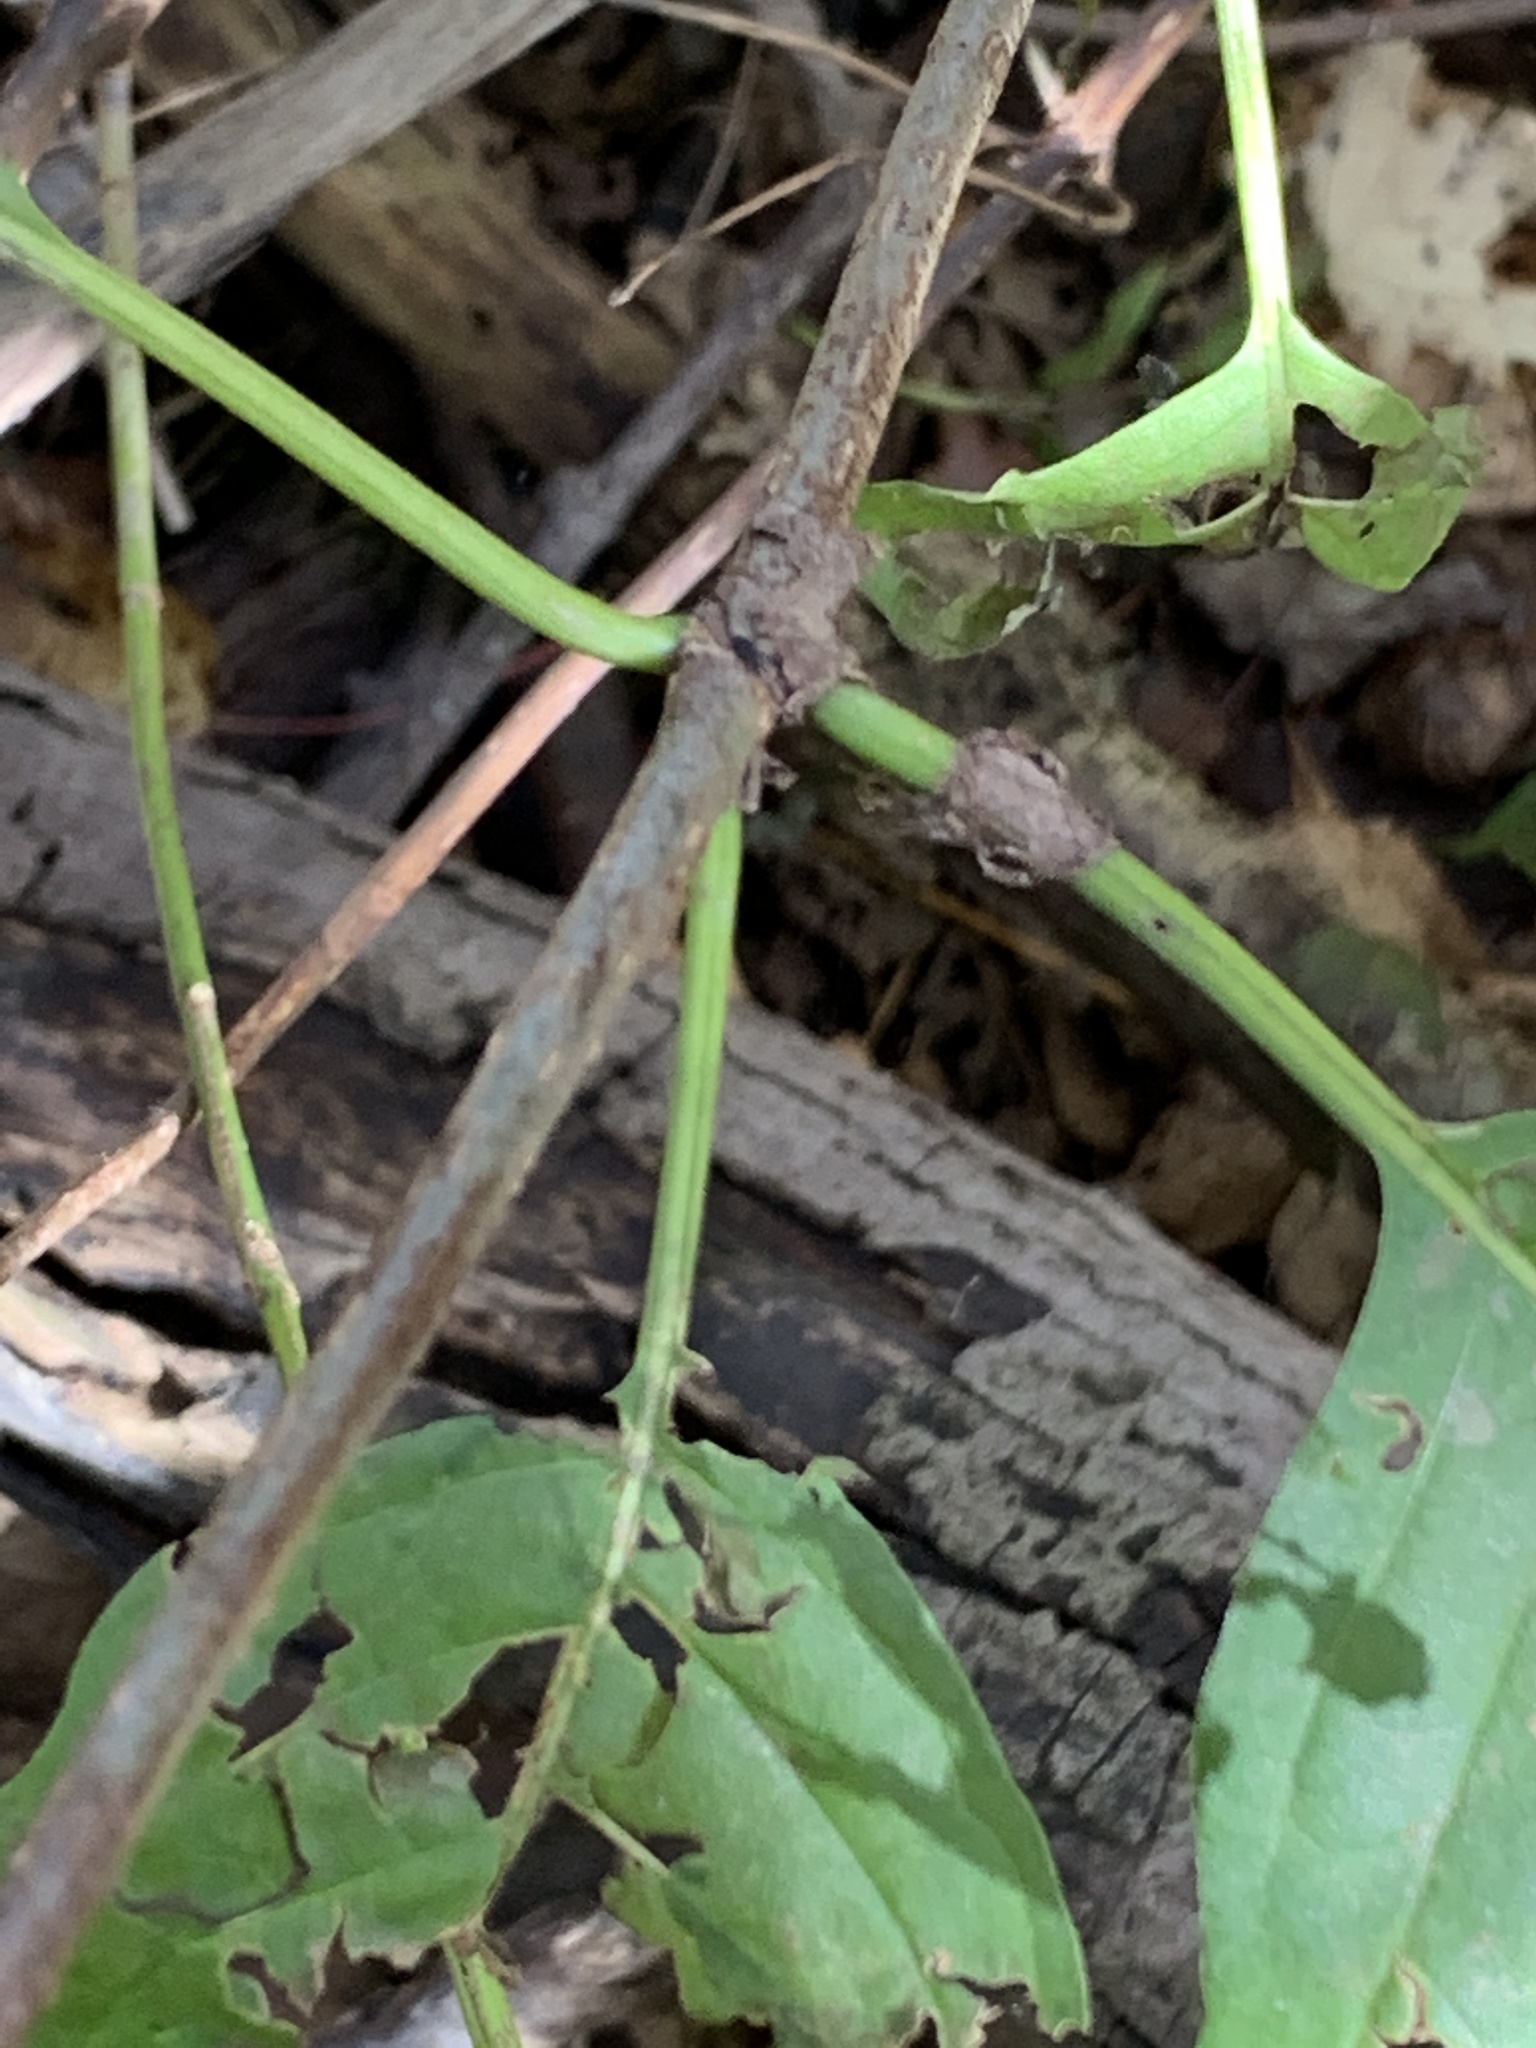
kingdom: Plantae
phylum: Tracheophyta
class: Magnoliopsida
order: Gentianales
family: Rubiaceae
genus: Cephalanthus
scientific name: Cephalanthus occidentalis
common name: Button-willow
